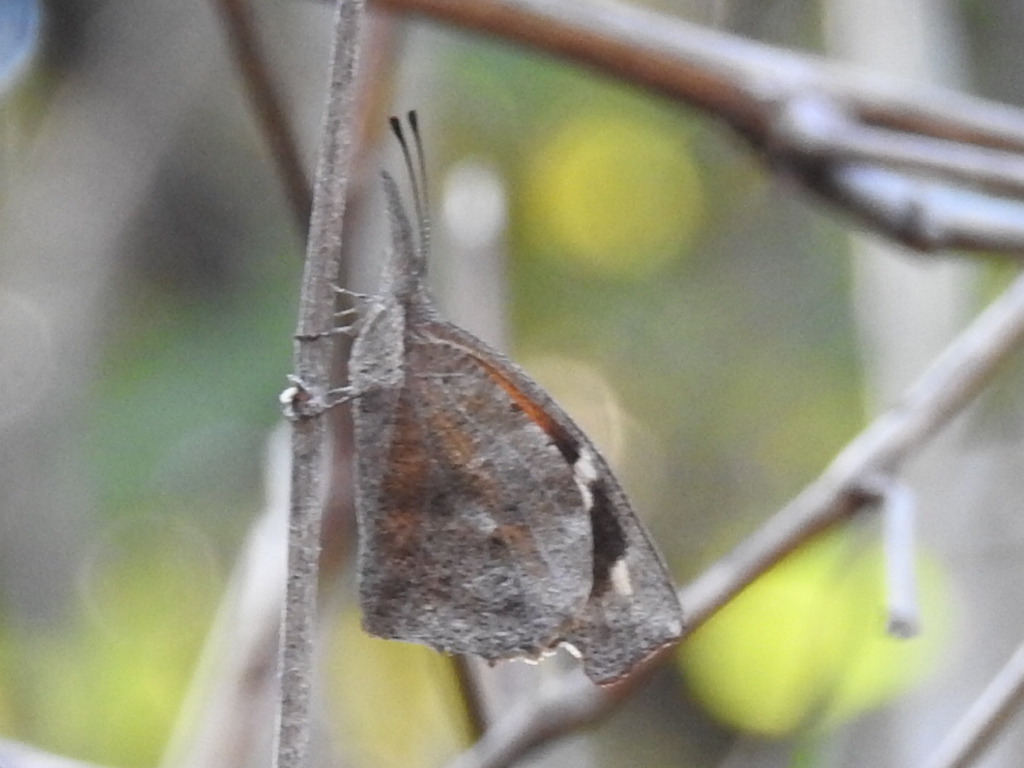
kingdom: Animalia
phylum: Arthropoda
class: Insecta
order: Lepidoptera
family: Nymphalidae
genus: Libytheana
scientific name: Libytheana carinenta
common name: American snout
